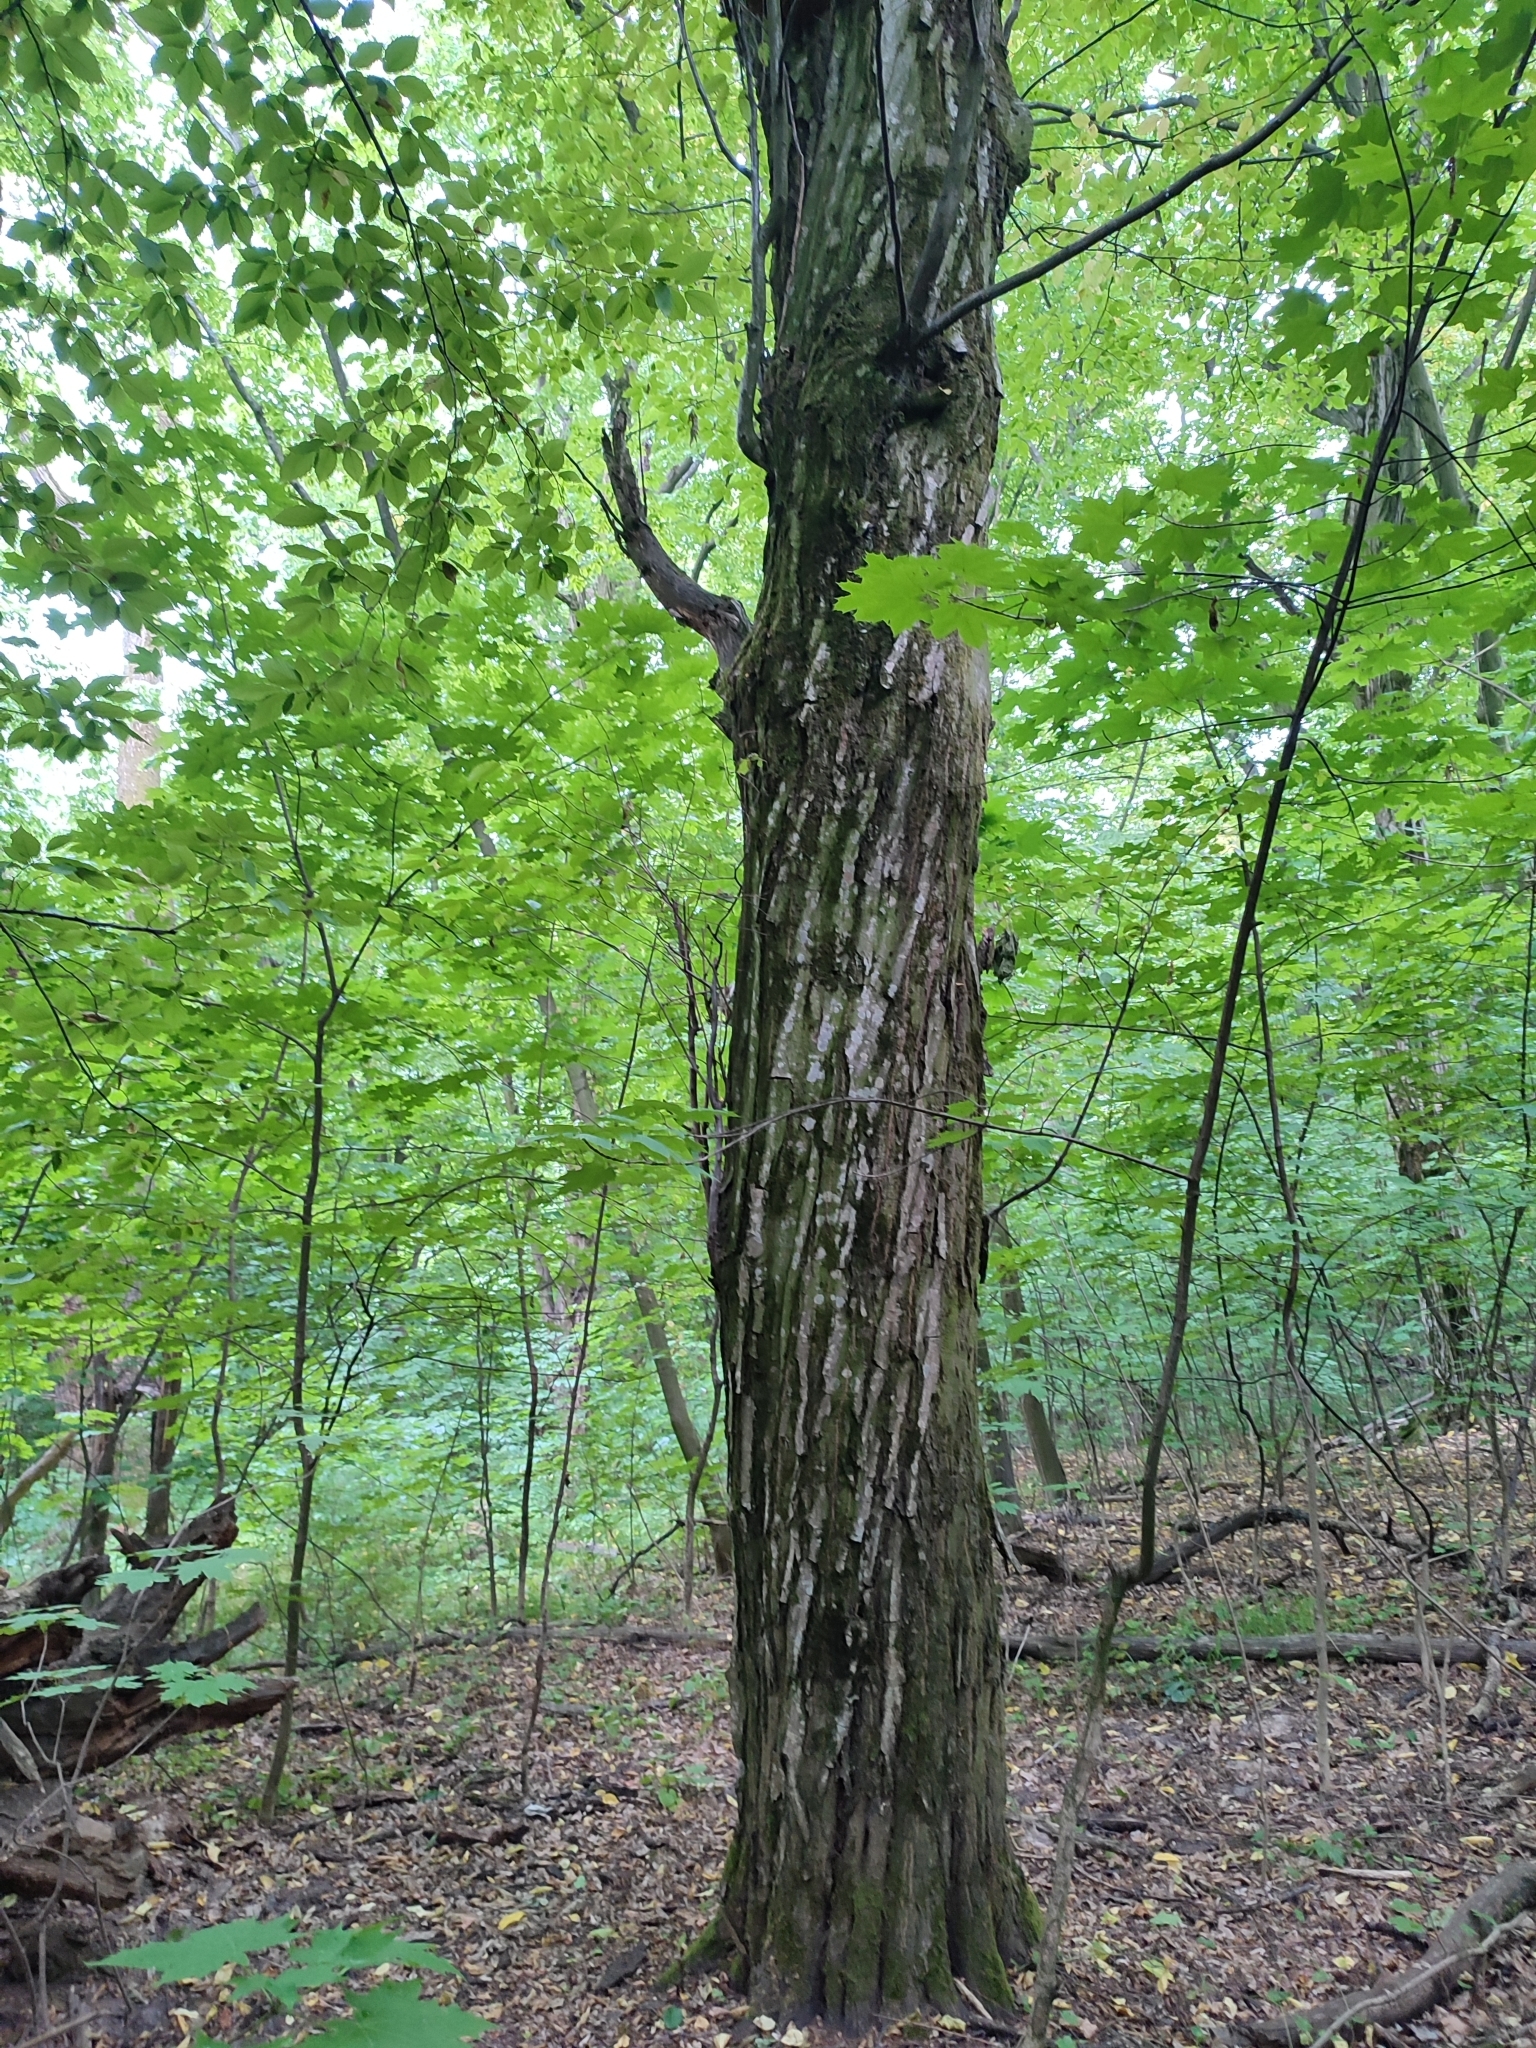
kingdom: Plantae
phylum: Tracheophyta
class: Magnoliopsida
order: Fagales
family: Betulaceae
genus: Carpinus
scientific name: Carpinus betulus
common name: Hornbeam
